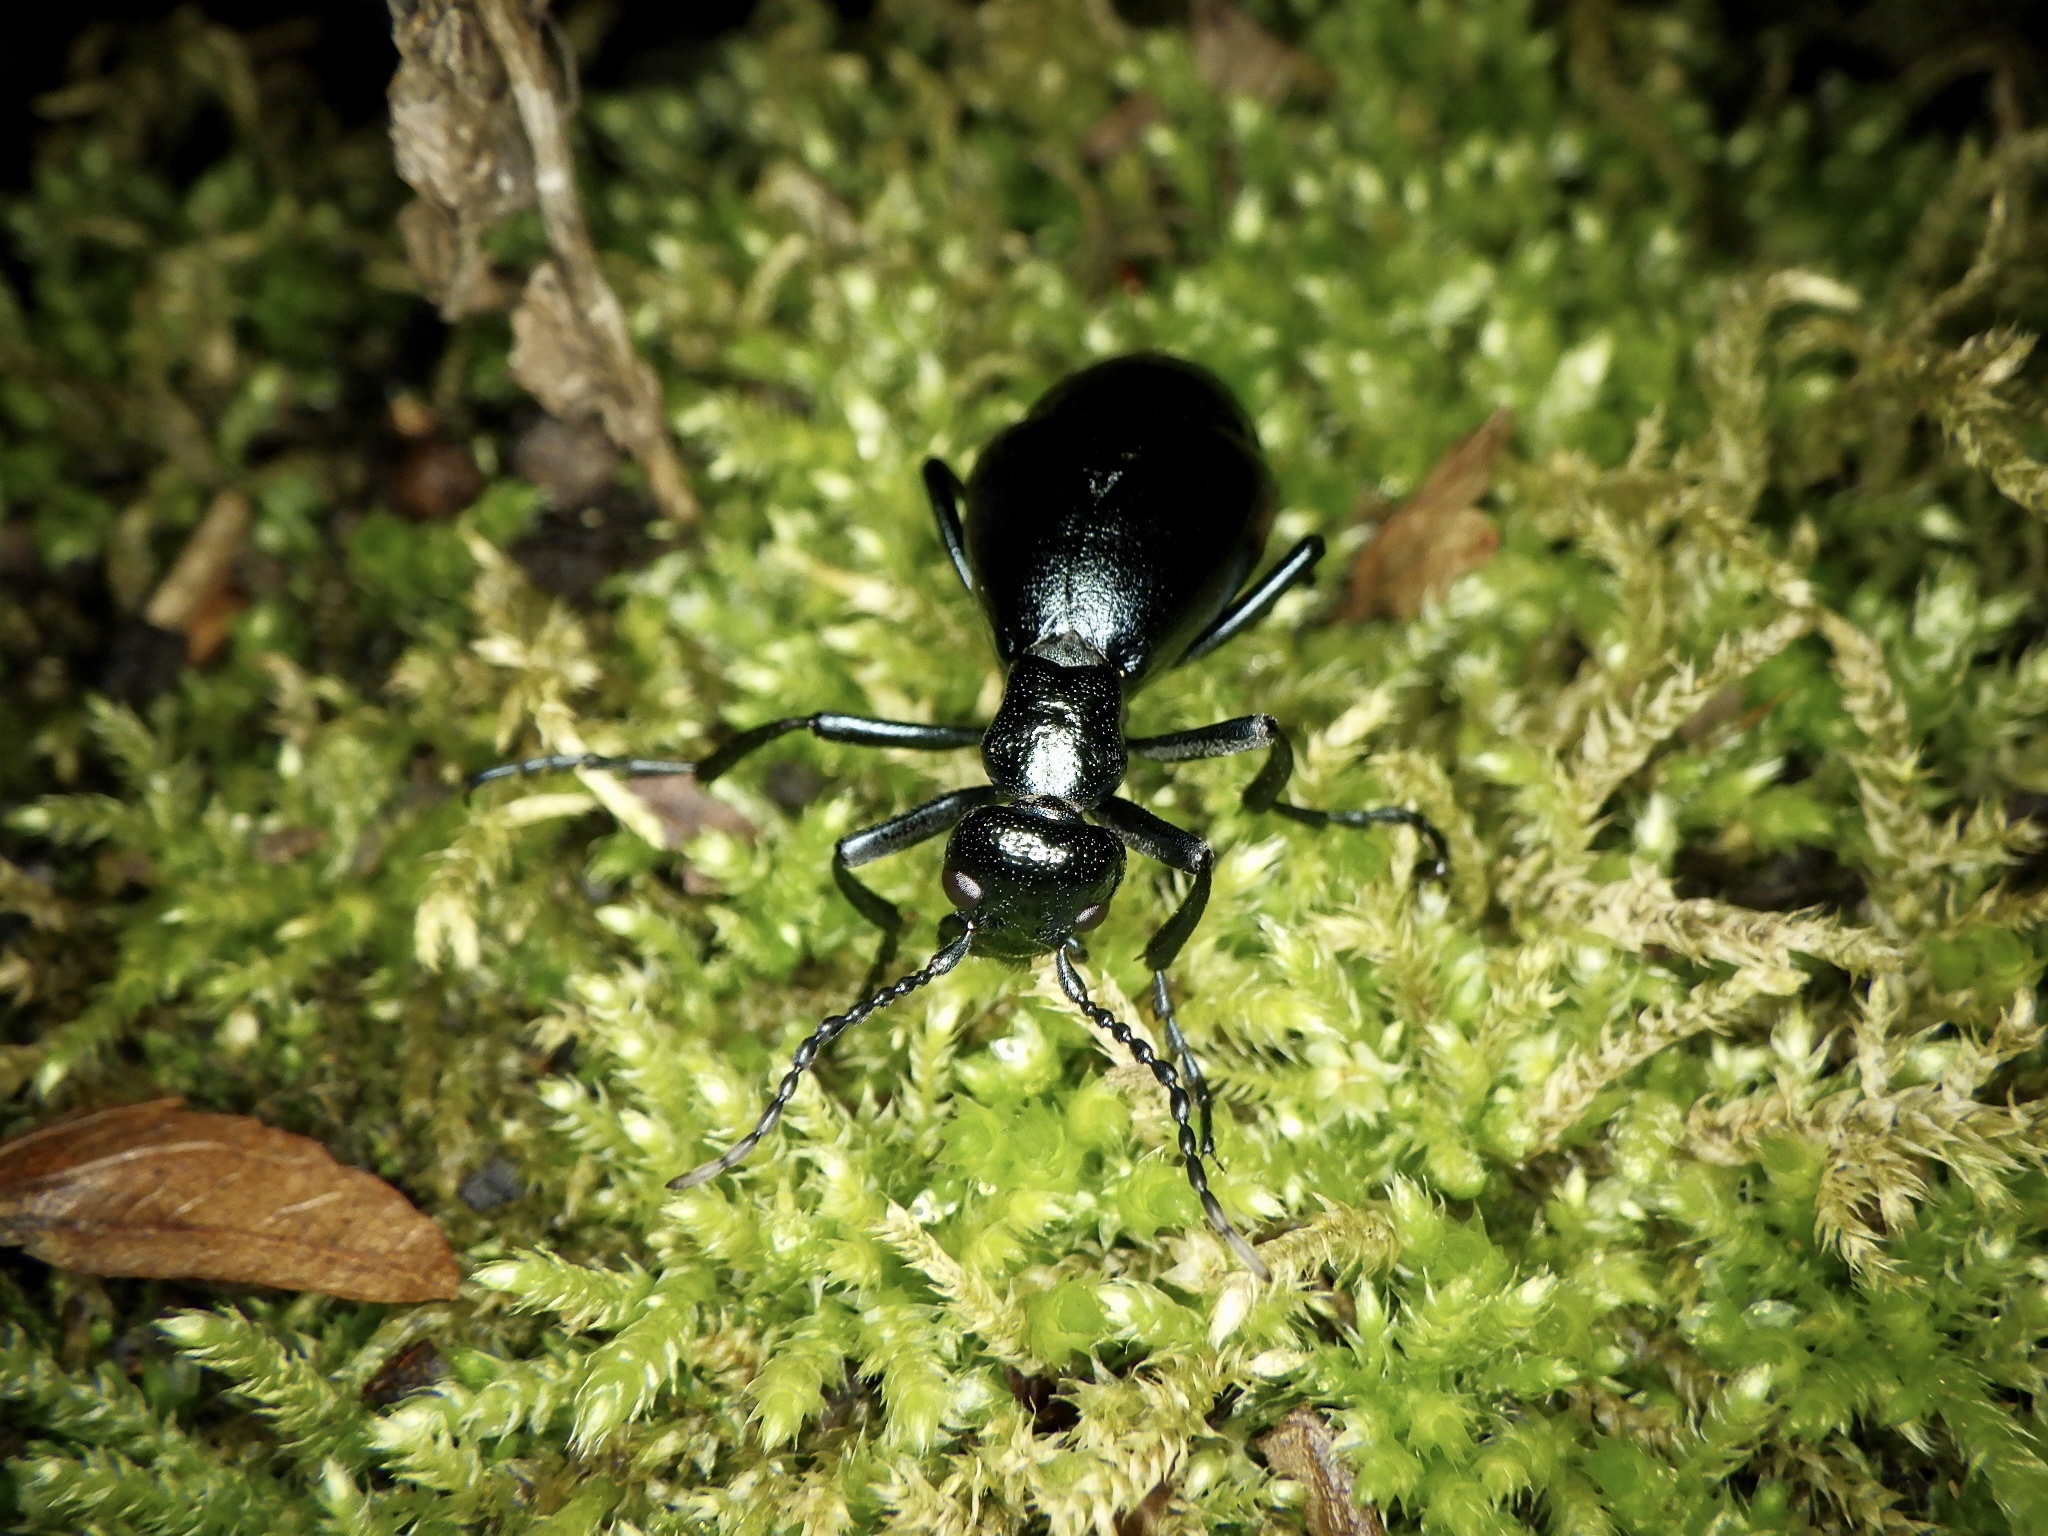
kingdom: Animalia
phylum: Arthropoda
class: Insecta
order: Coleoptera
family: Meloidae
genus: Meloe
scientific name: Meloe coarctatus
